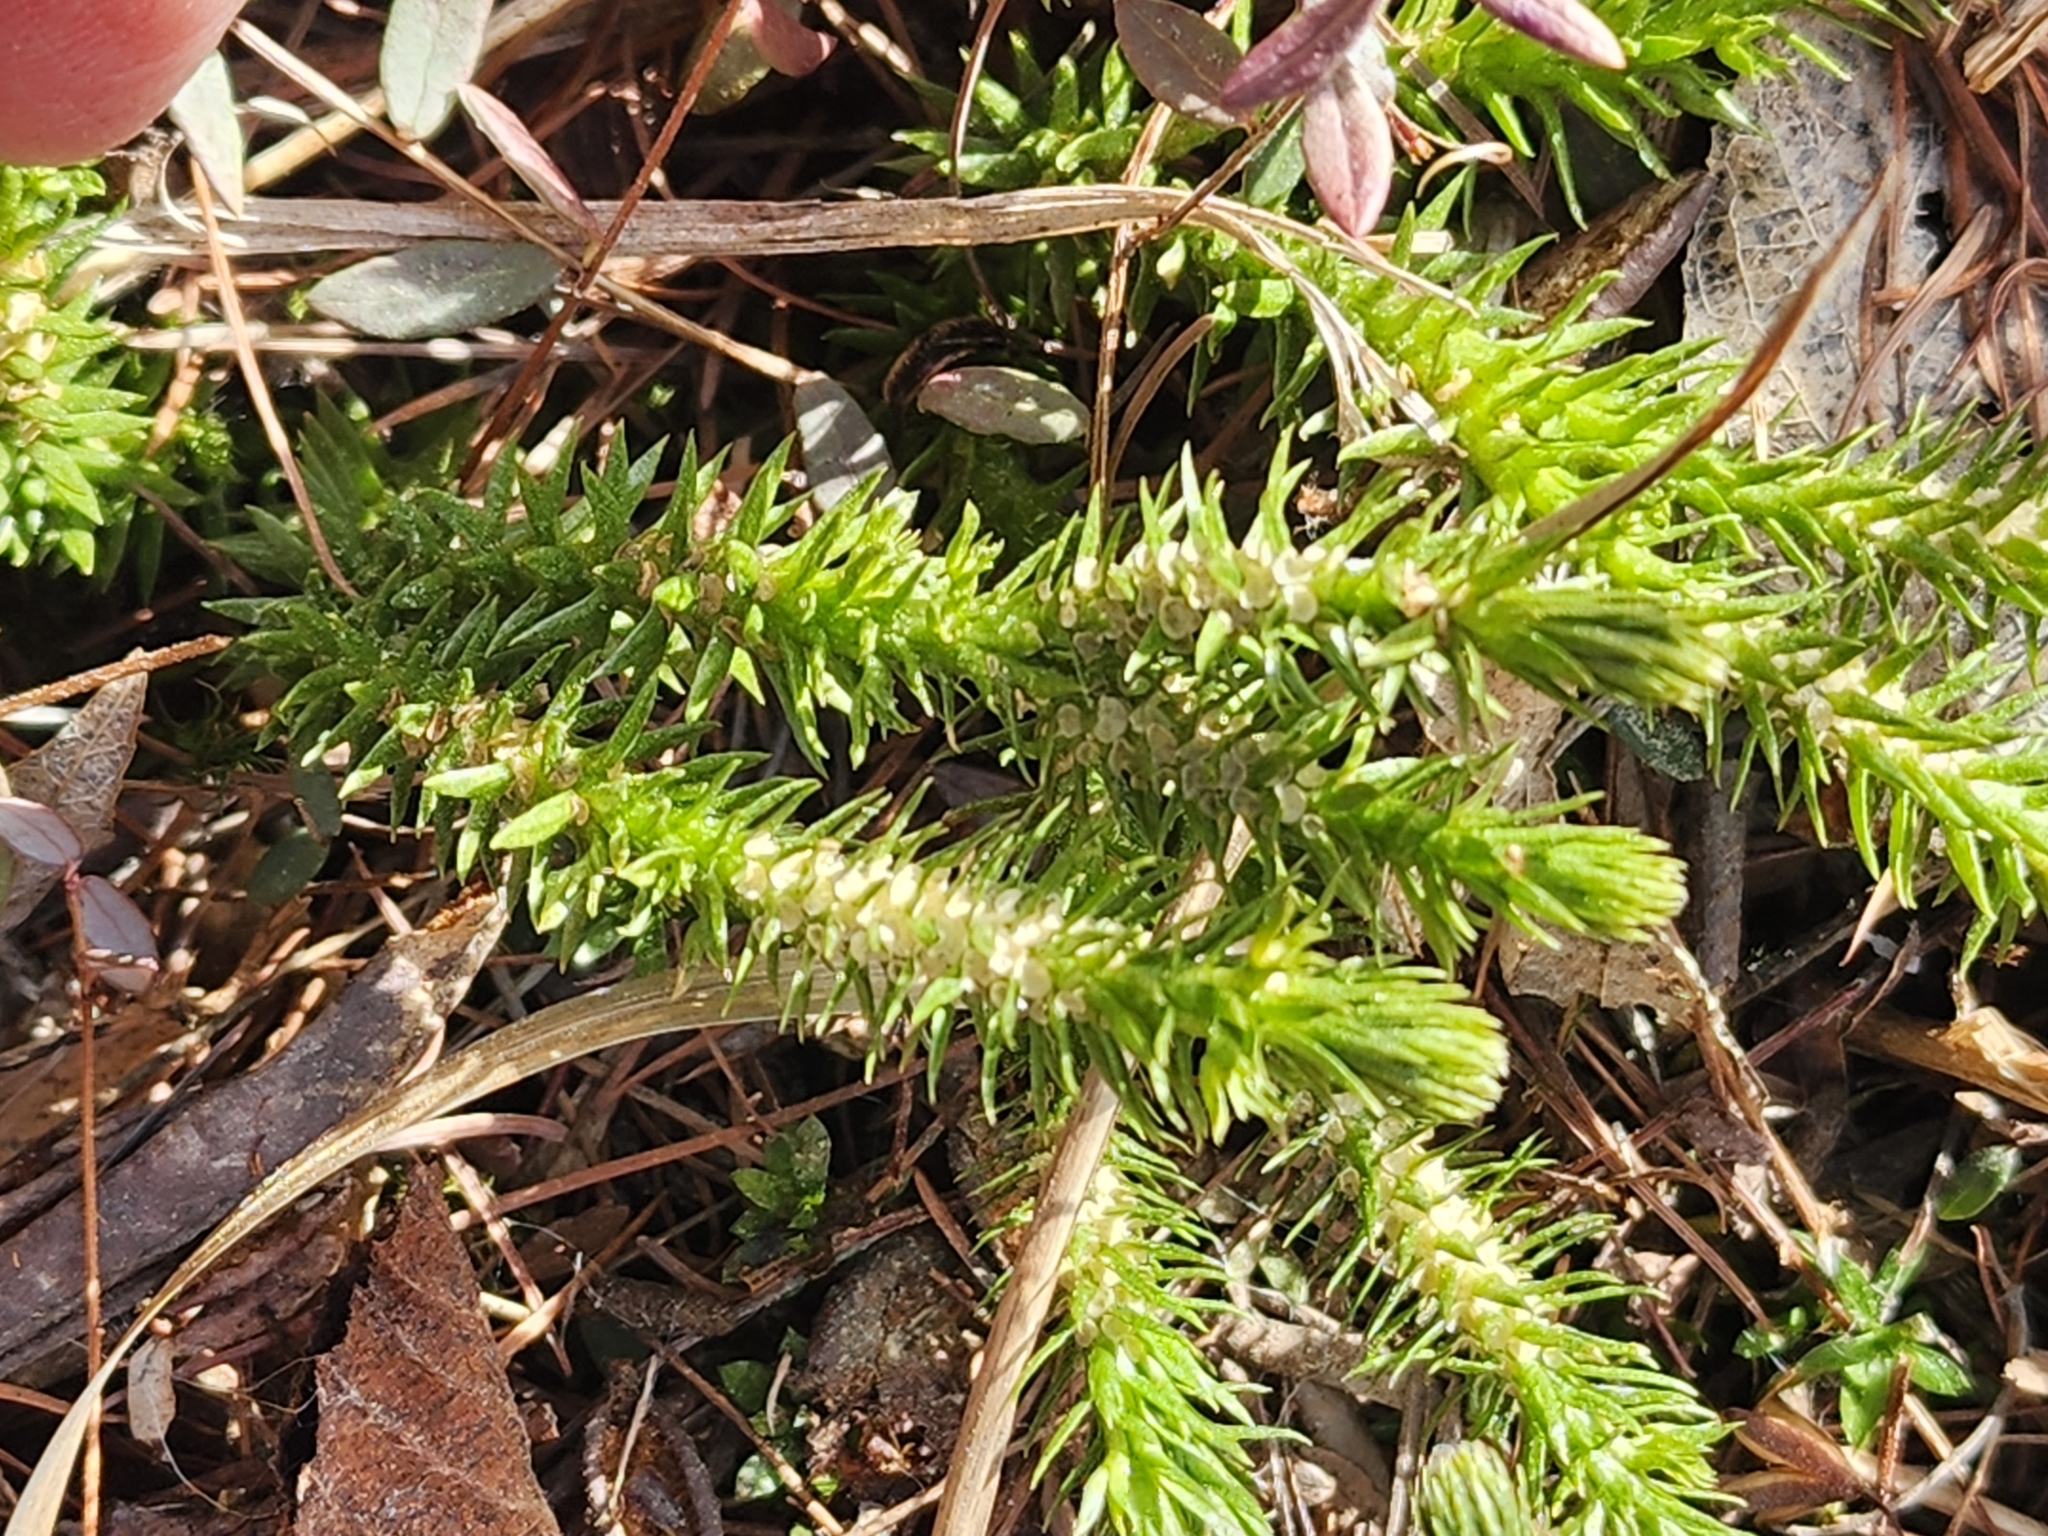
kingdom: Plantae
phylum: Tracheophyta
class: Lycopodiopsida
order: Lycopodiales
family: Lycopodiaceae
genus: Huperzia
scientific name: Huperzia lucidula
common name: Shining clubmoss
